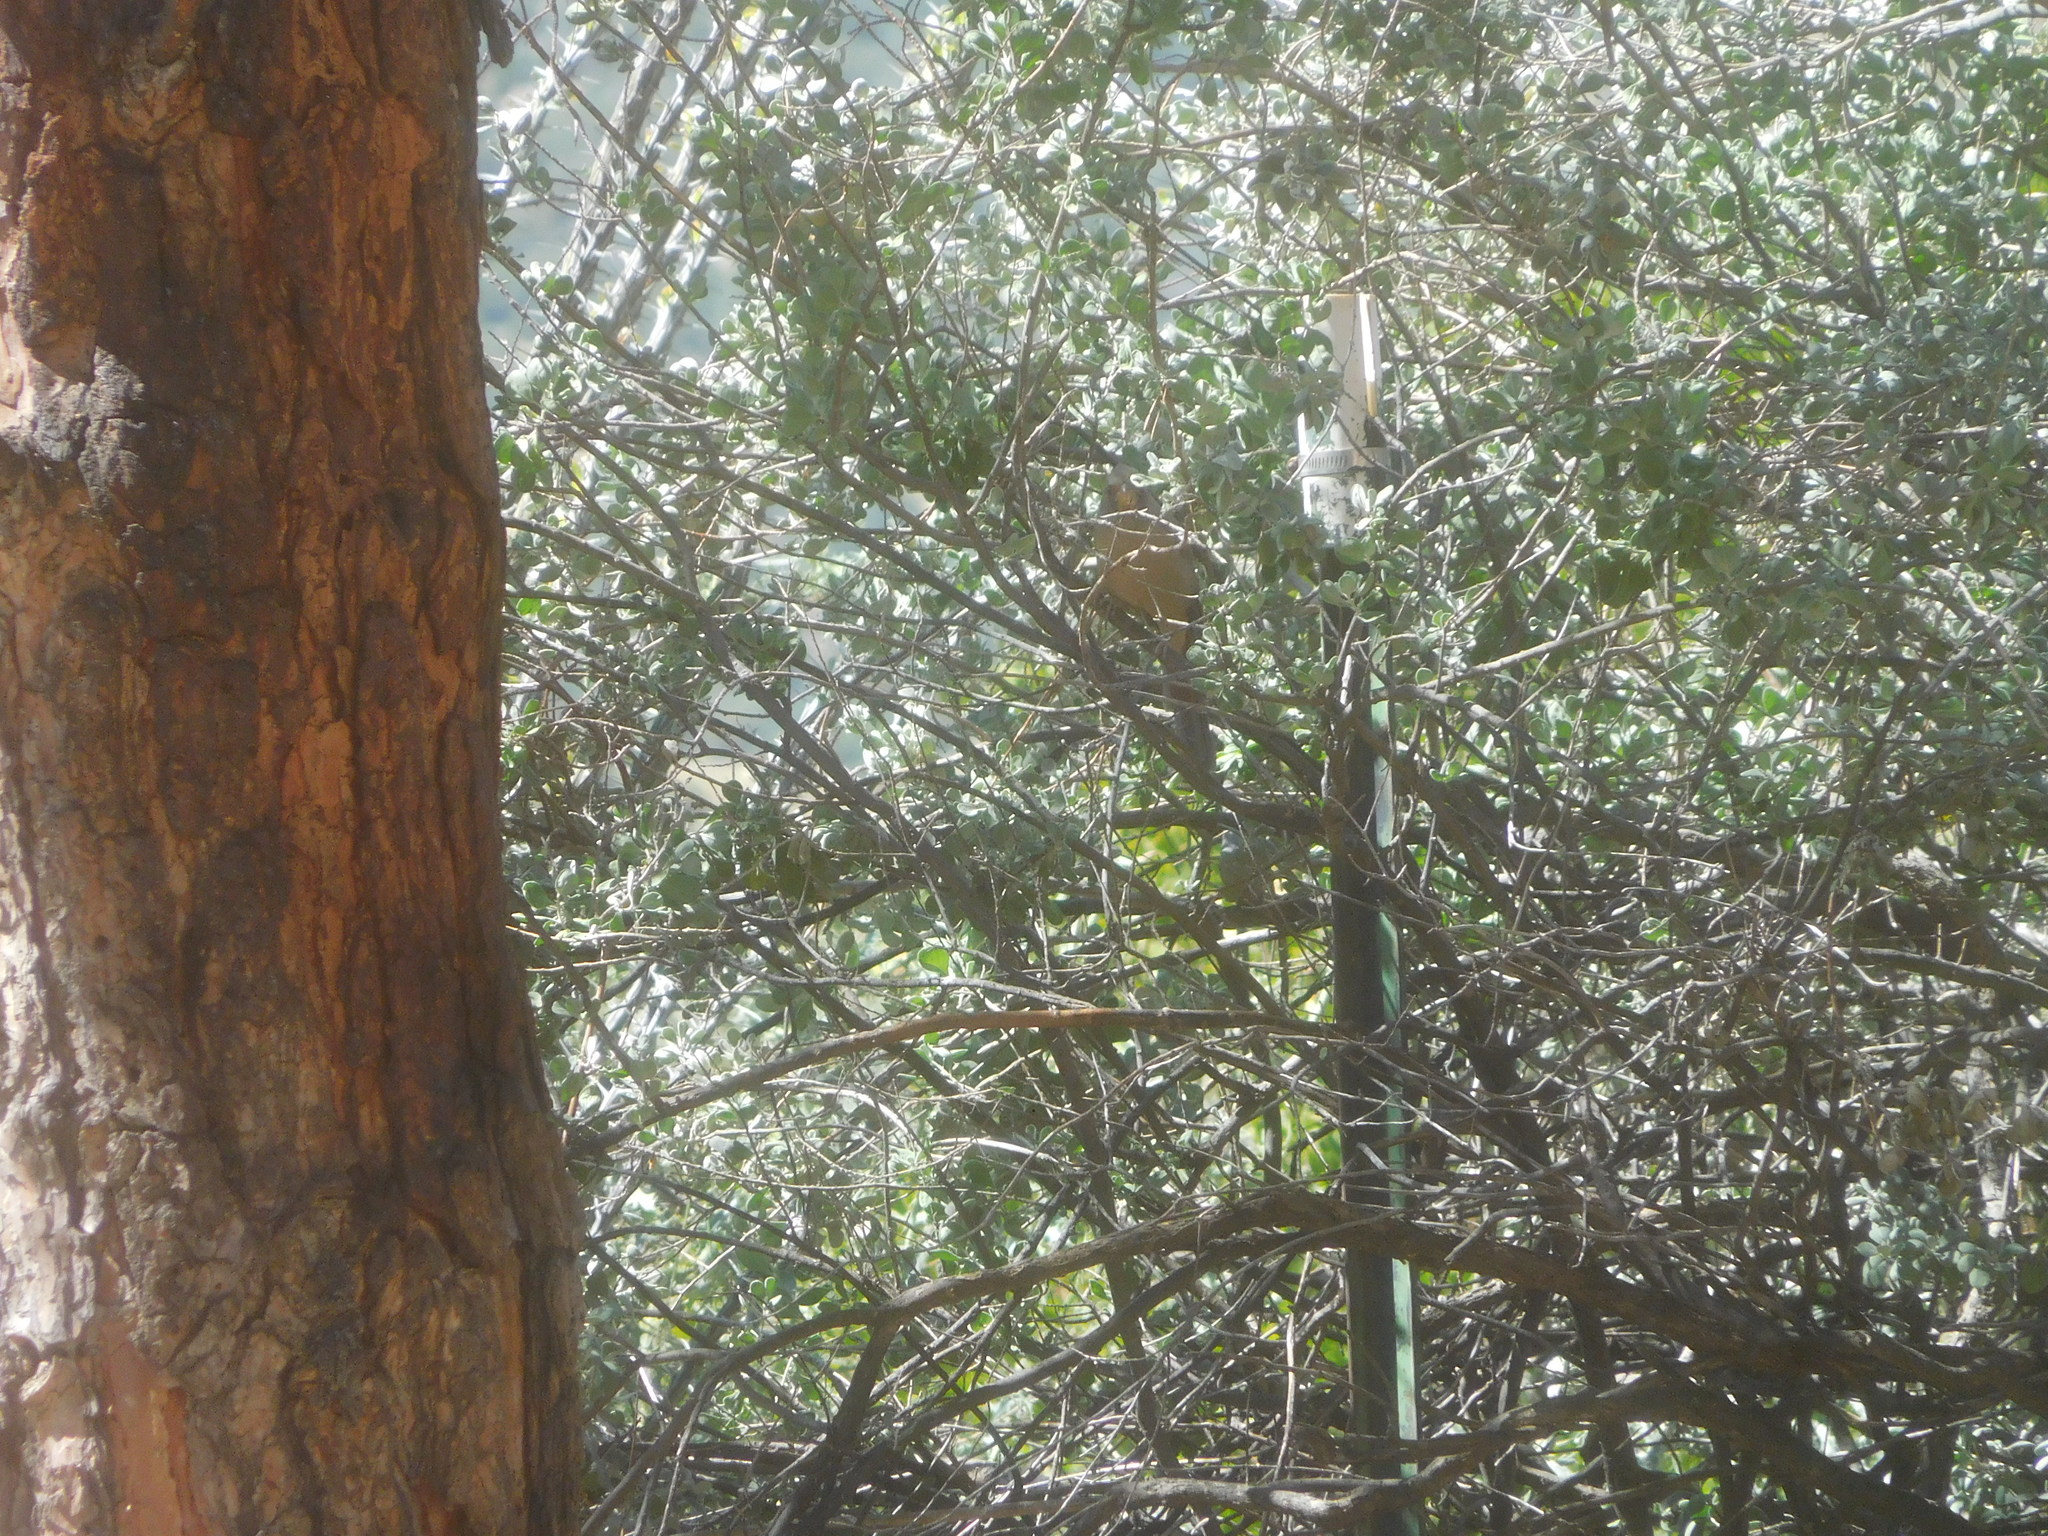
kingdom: Animalia
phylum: Chordata
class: Aves
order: Passeriformes
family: Cardinalidae
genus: Cardinalis
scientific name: Cardinalis sinuatus
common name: Pyrrhuloxia
